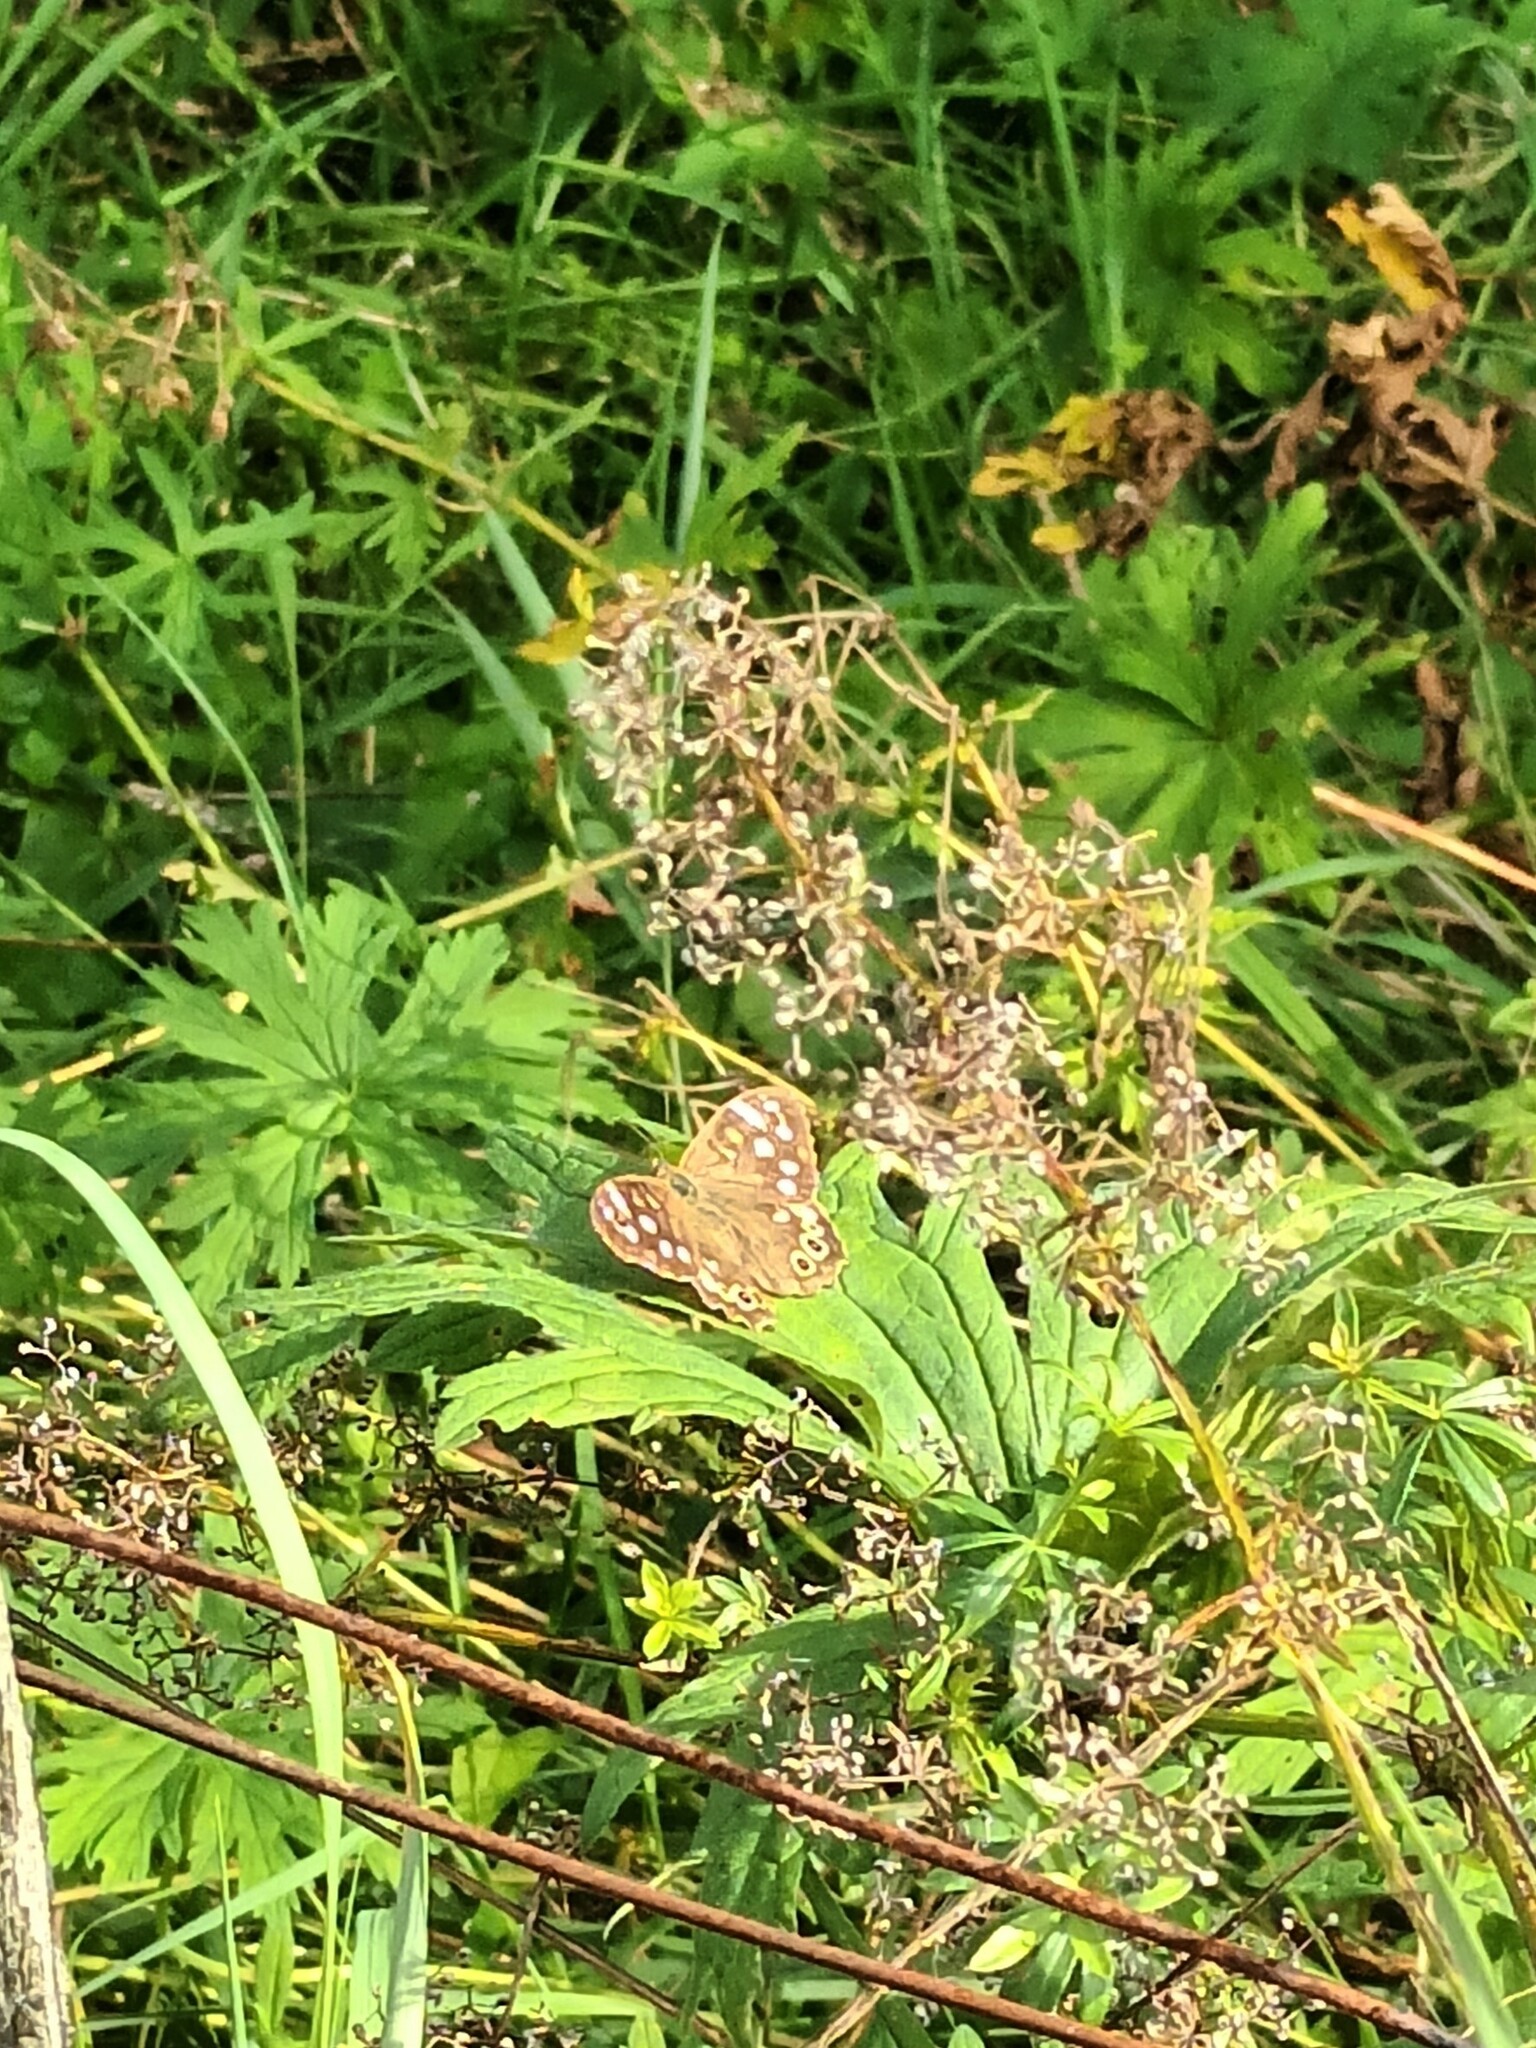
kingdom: Animalia
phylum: Arthropoda
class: Insecta
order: Lepidoptera
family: Nymphalidae
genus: Pararge
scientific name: Pararge aegeria
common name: Speckled wood
